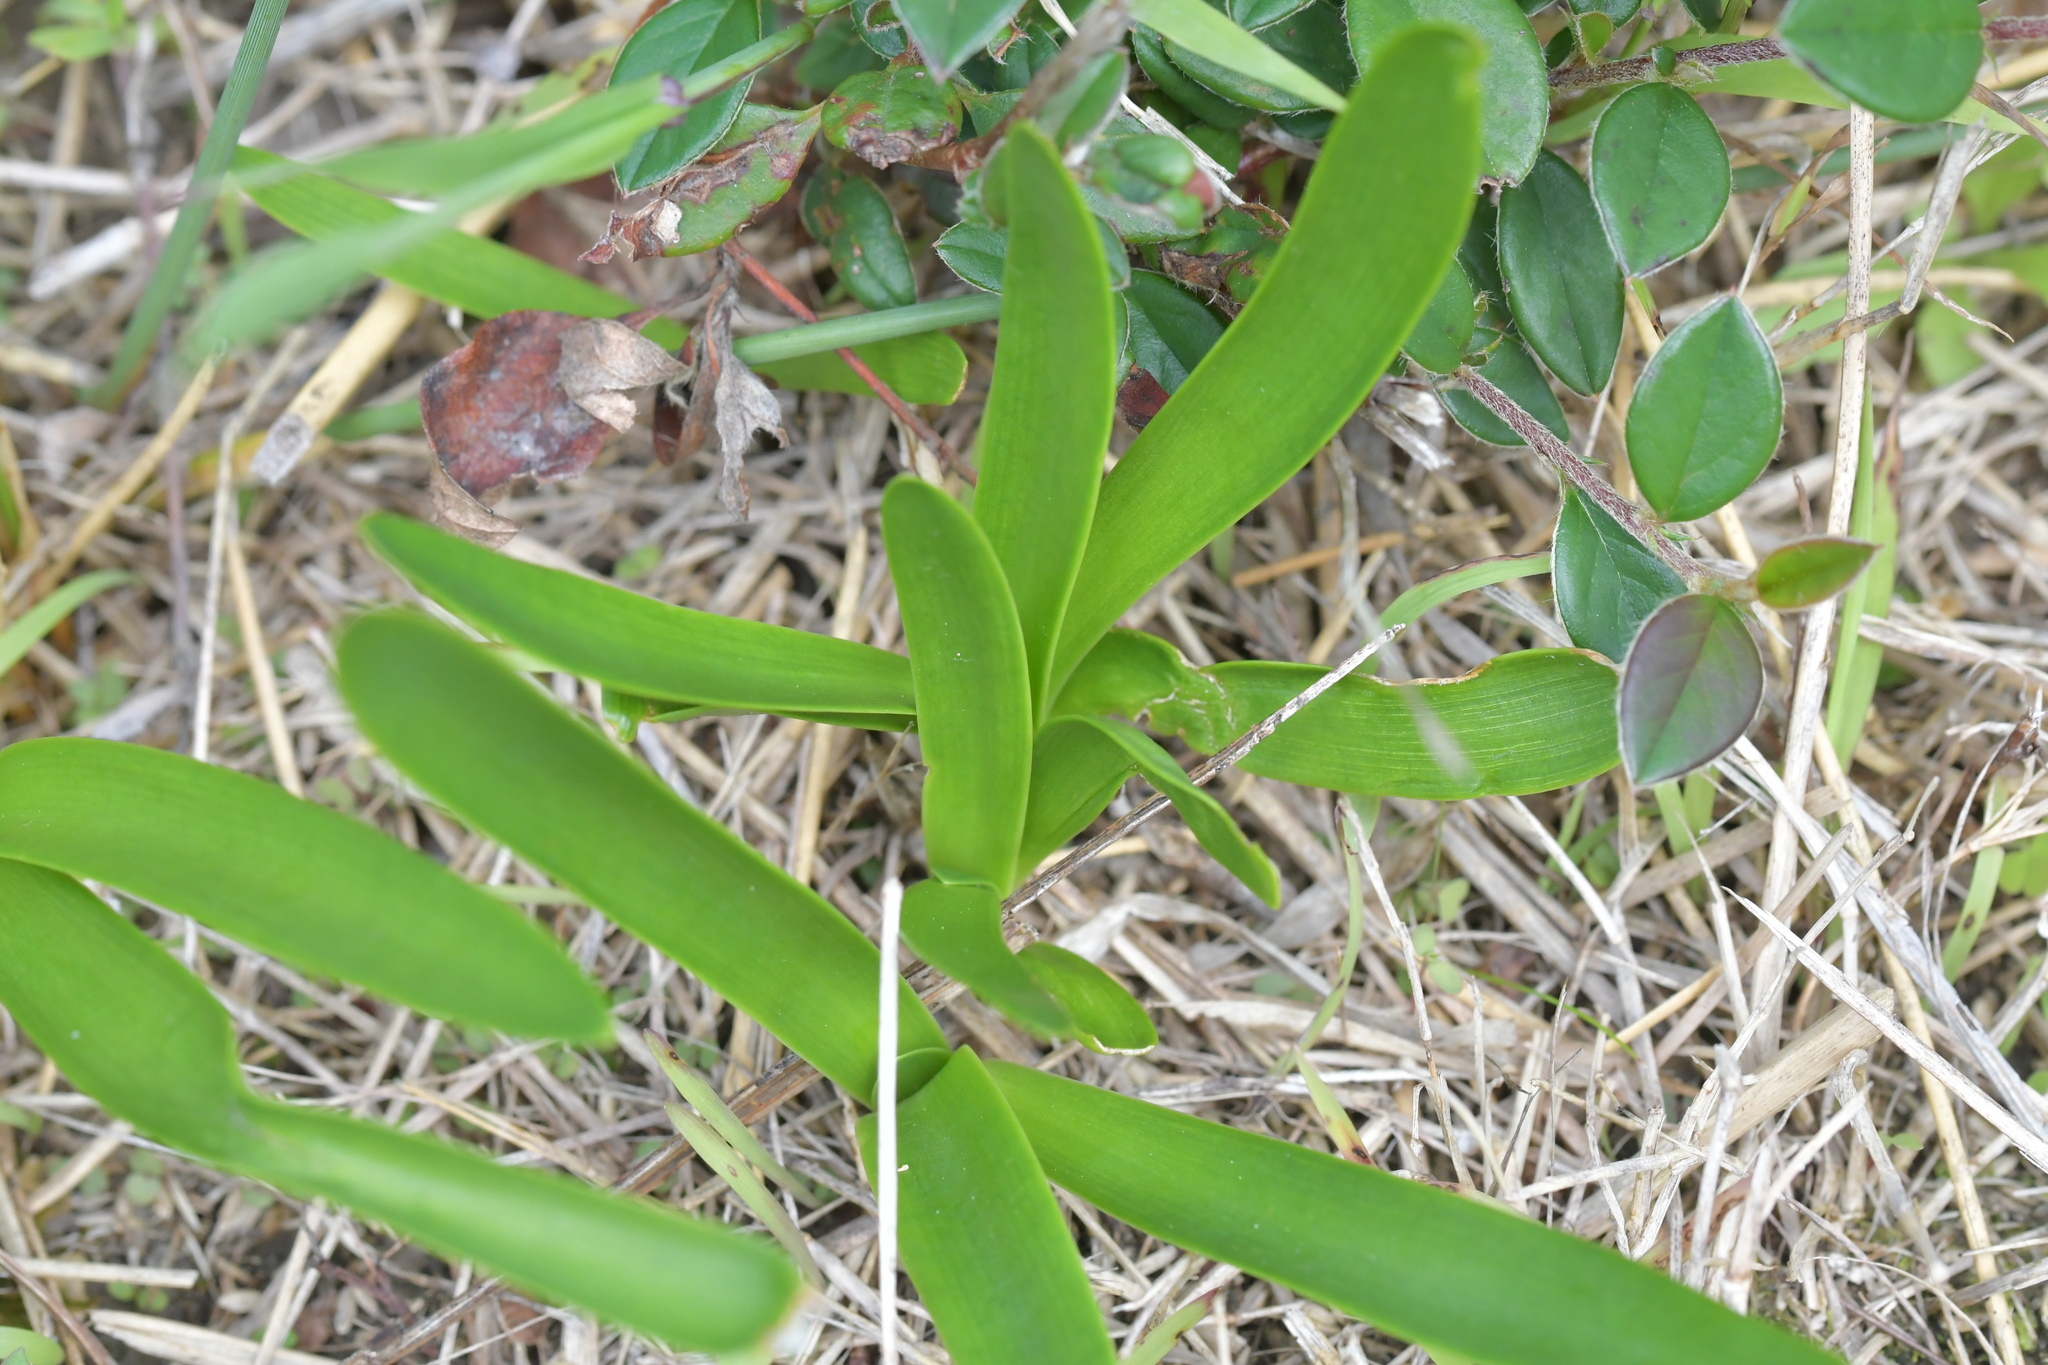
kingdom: Plantae
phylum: Tracheophyta
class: Liliopsida
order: Asparagales
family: Amaryllidaceae
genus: Agapanthus
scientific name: Agapanthus praecox
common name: African-lily
